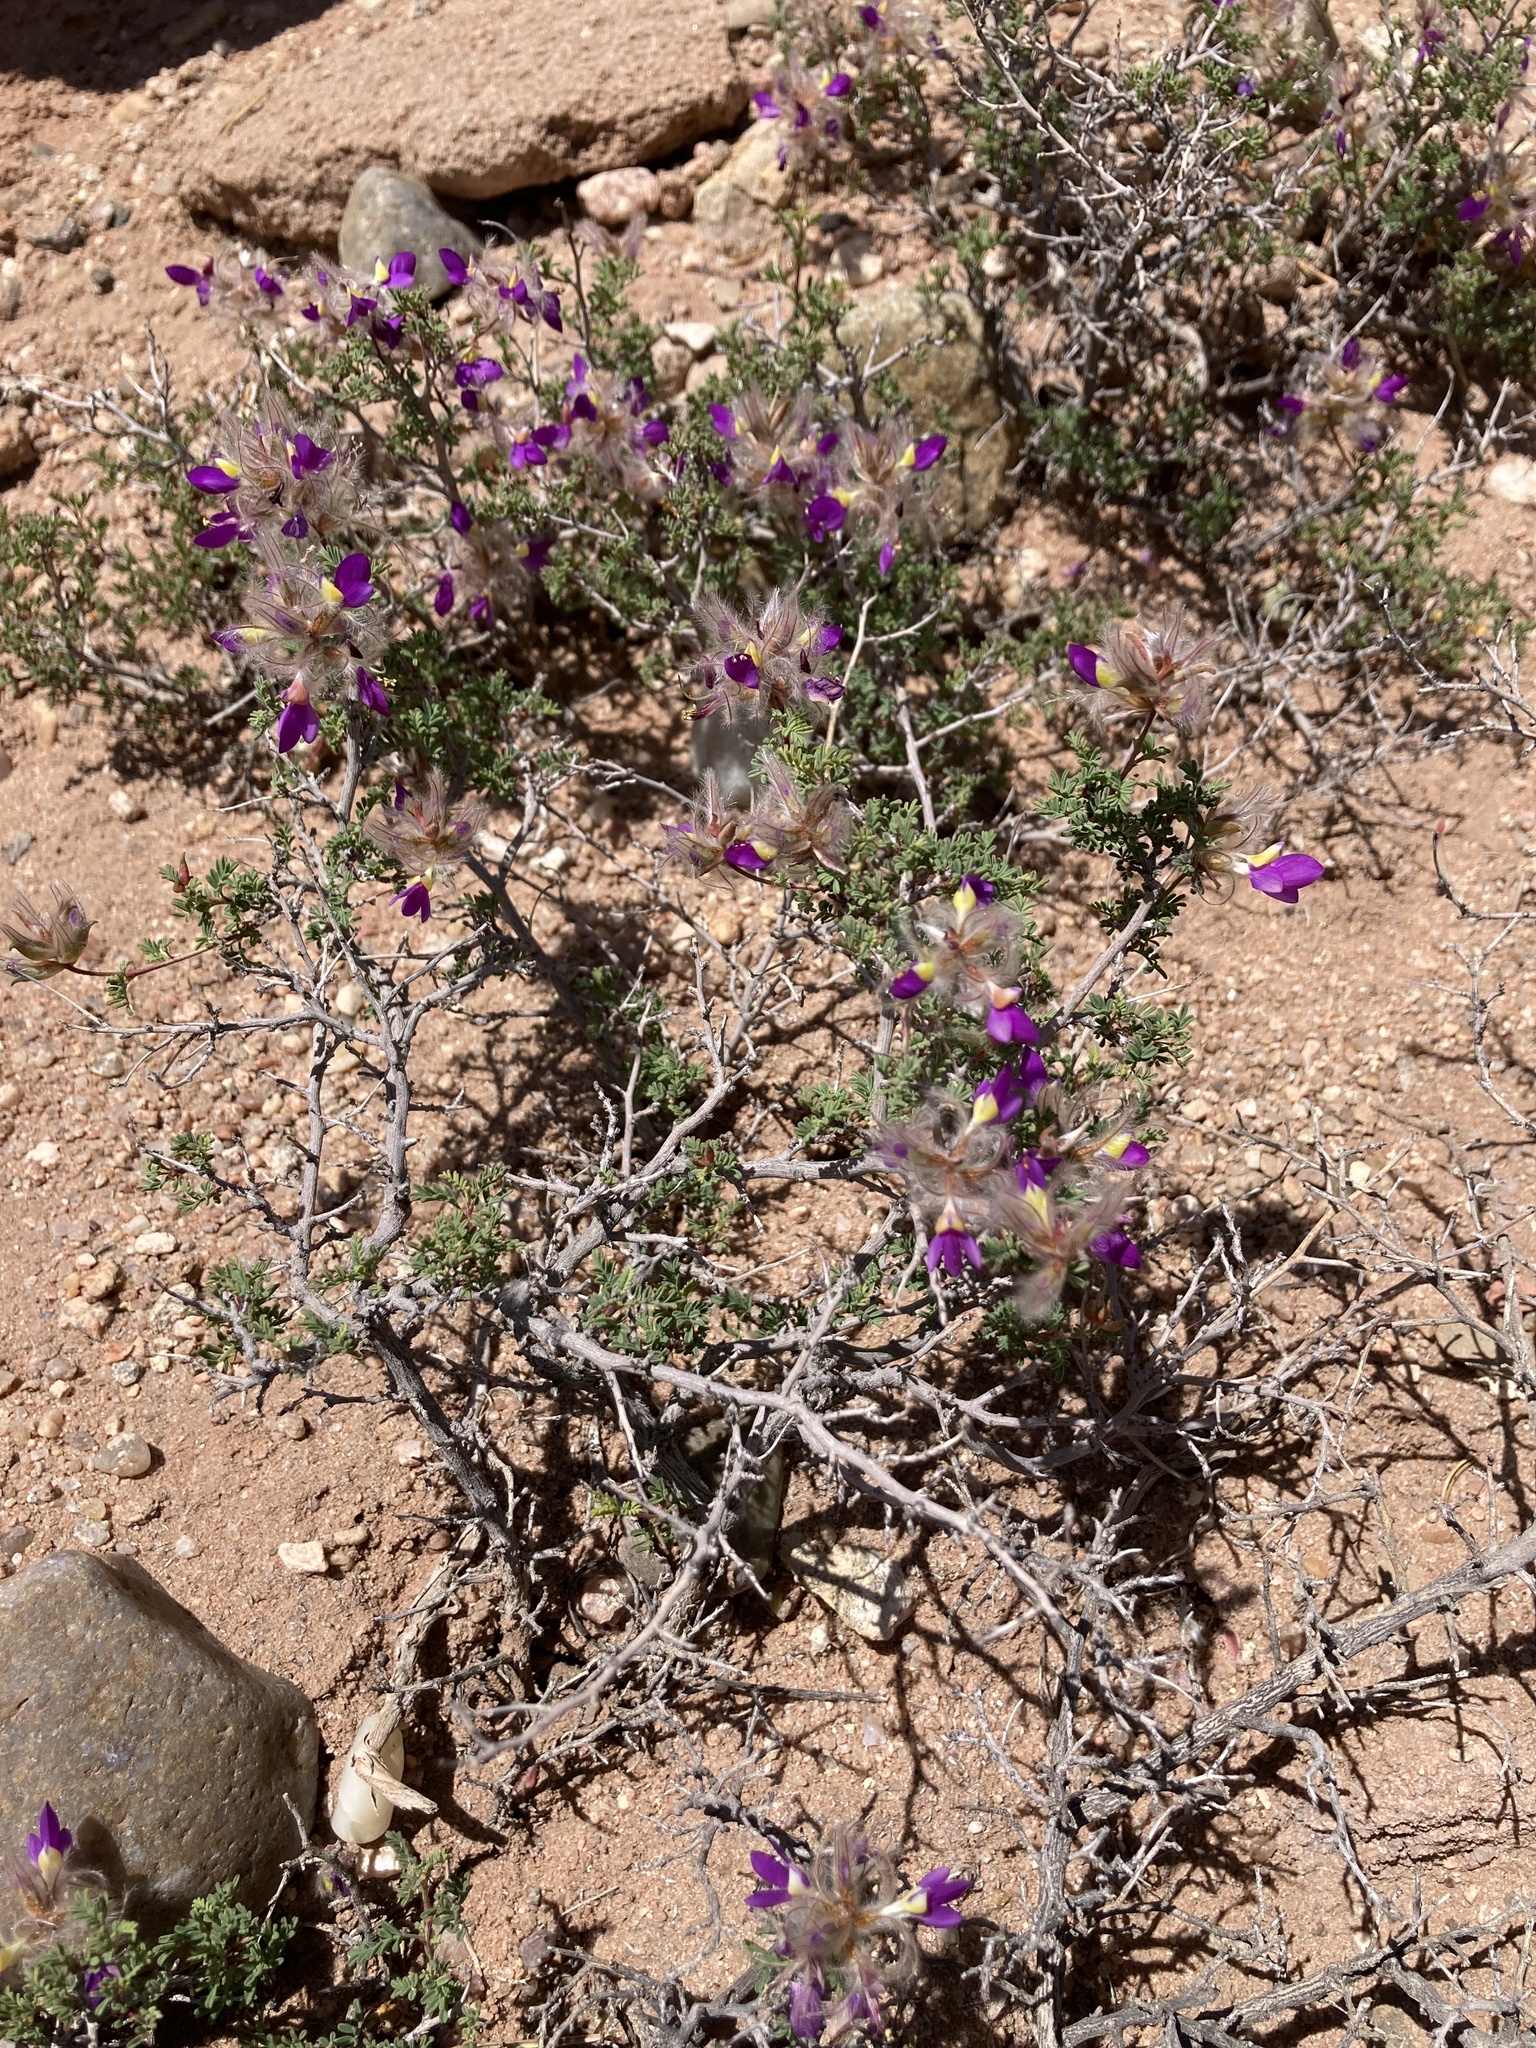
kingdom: Plantae
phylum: Tracheophyta
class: Magnoliopsida
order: Fabales
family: Fabaceae
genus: Dalea
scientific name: Dalea formosa
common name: Feather-plume dalea
